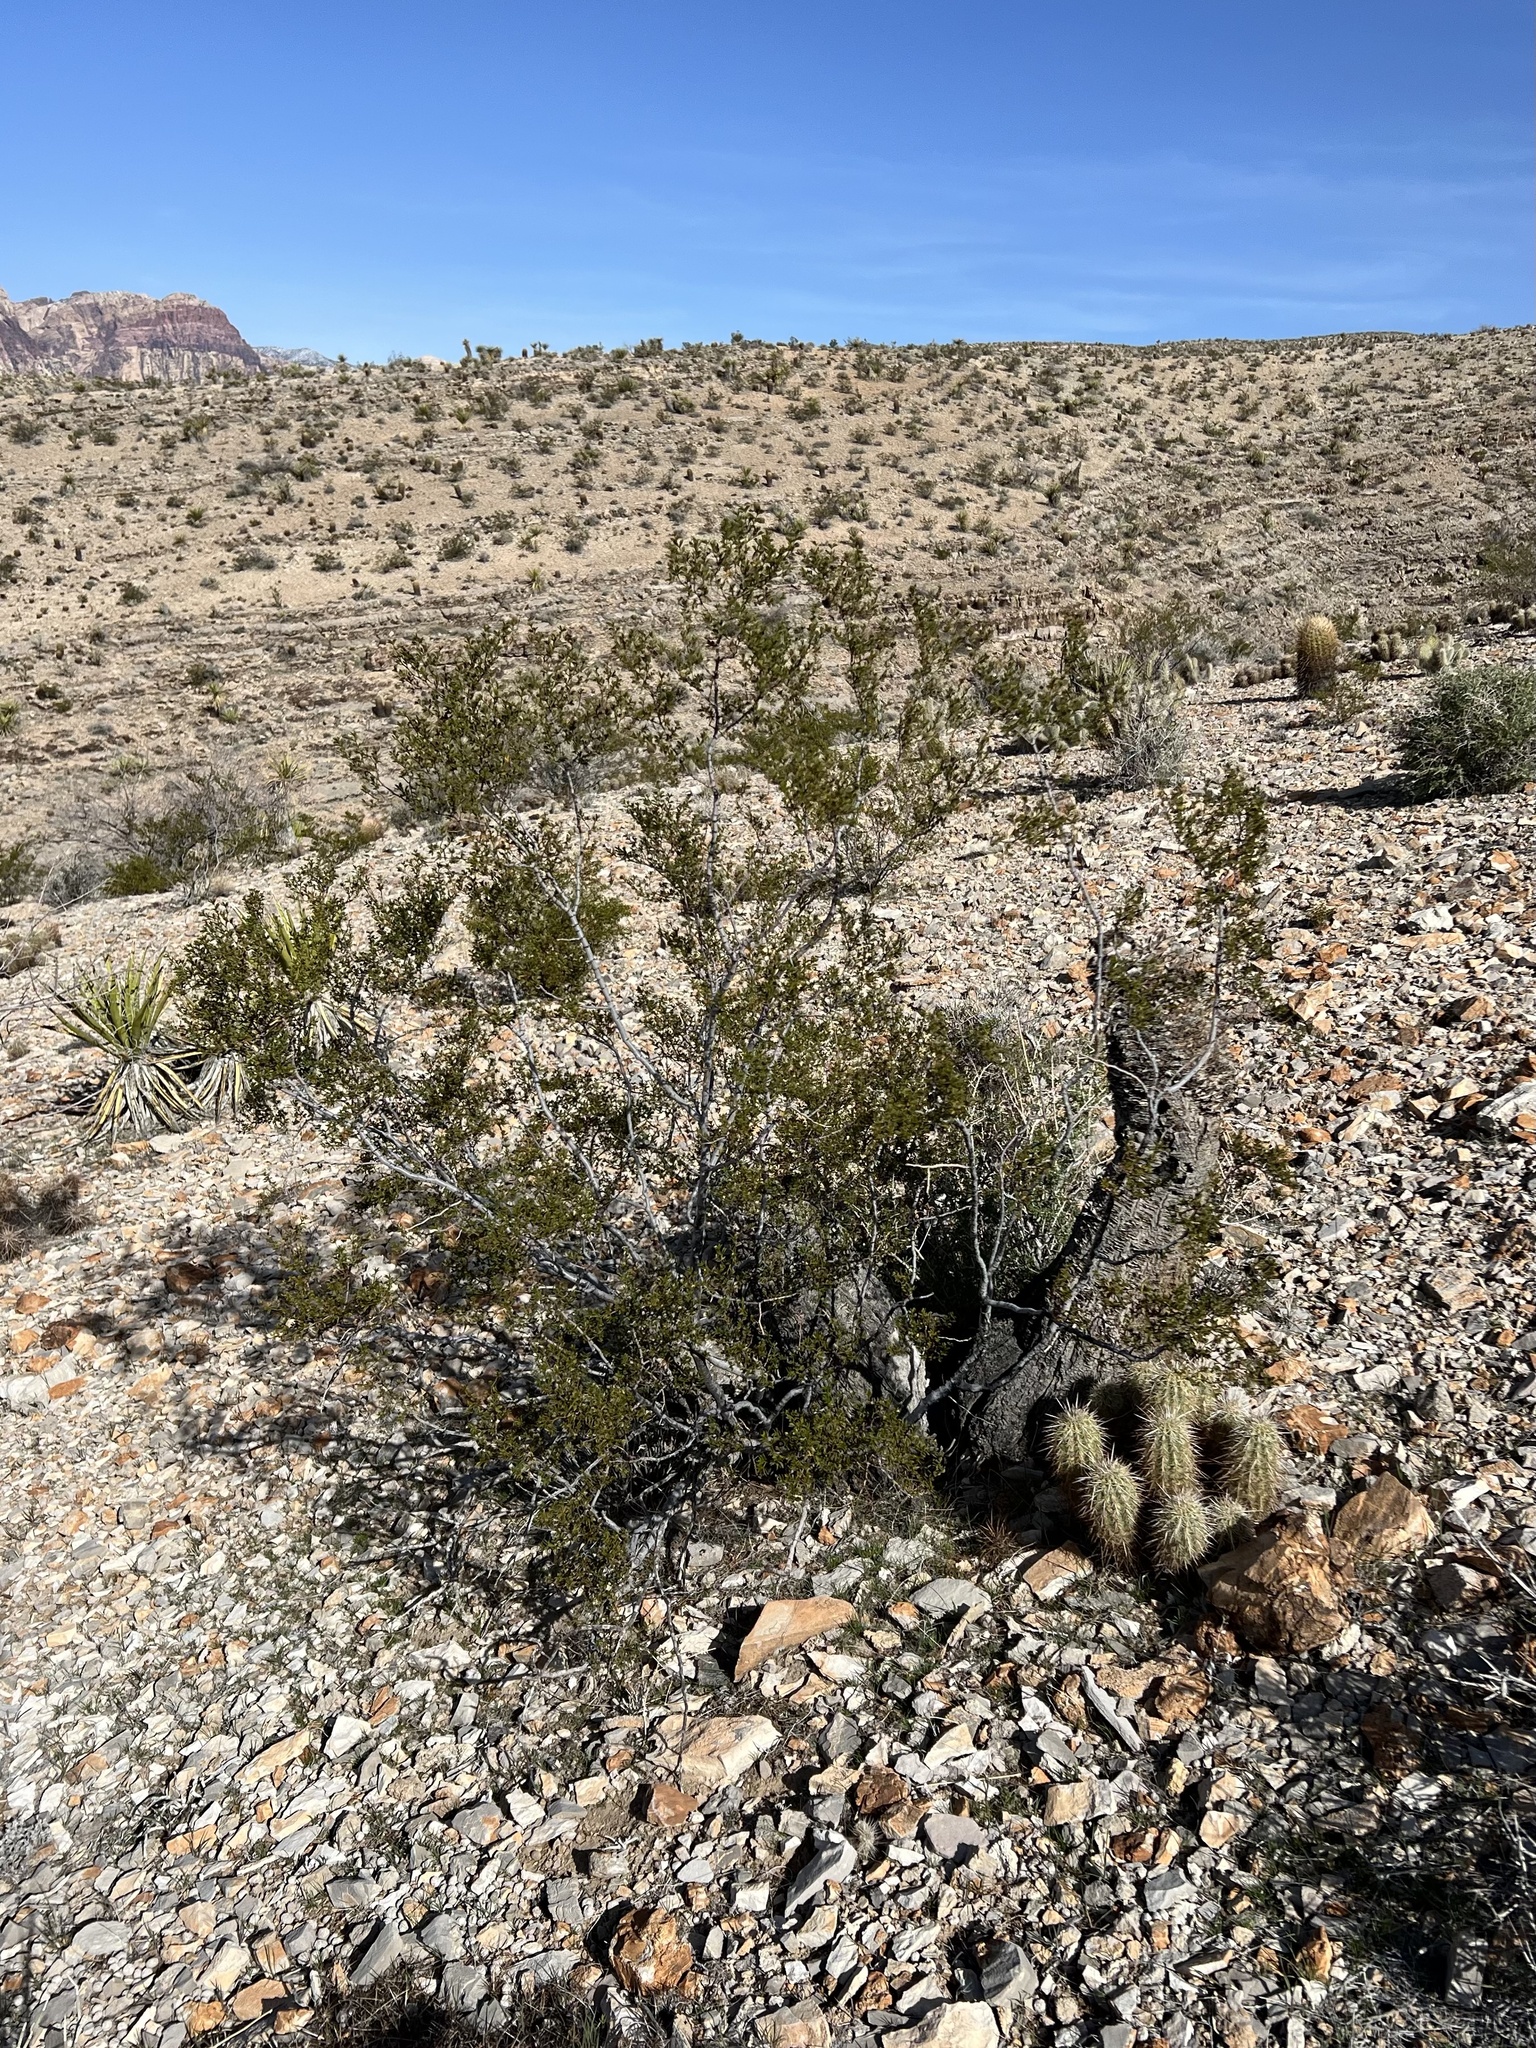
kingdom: Plantae
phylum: Tracheophyta
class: Magnoliopsida
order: Zygophyllales
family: Zygophyllaceae
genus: Larrea
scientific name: Larrea tridentata
